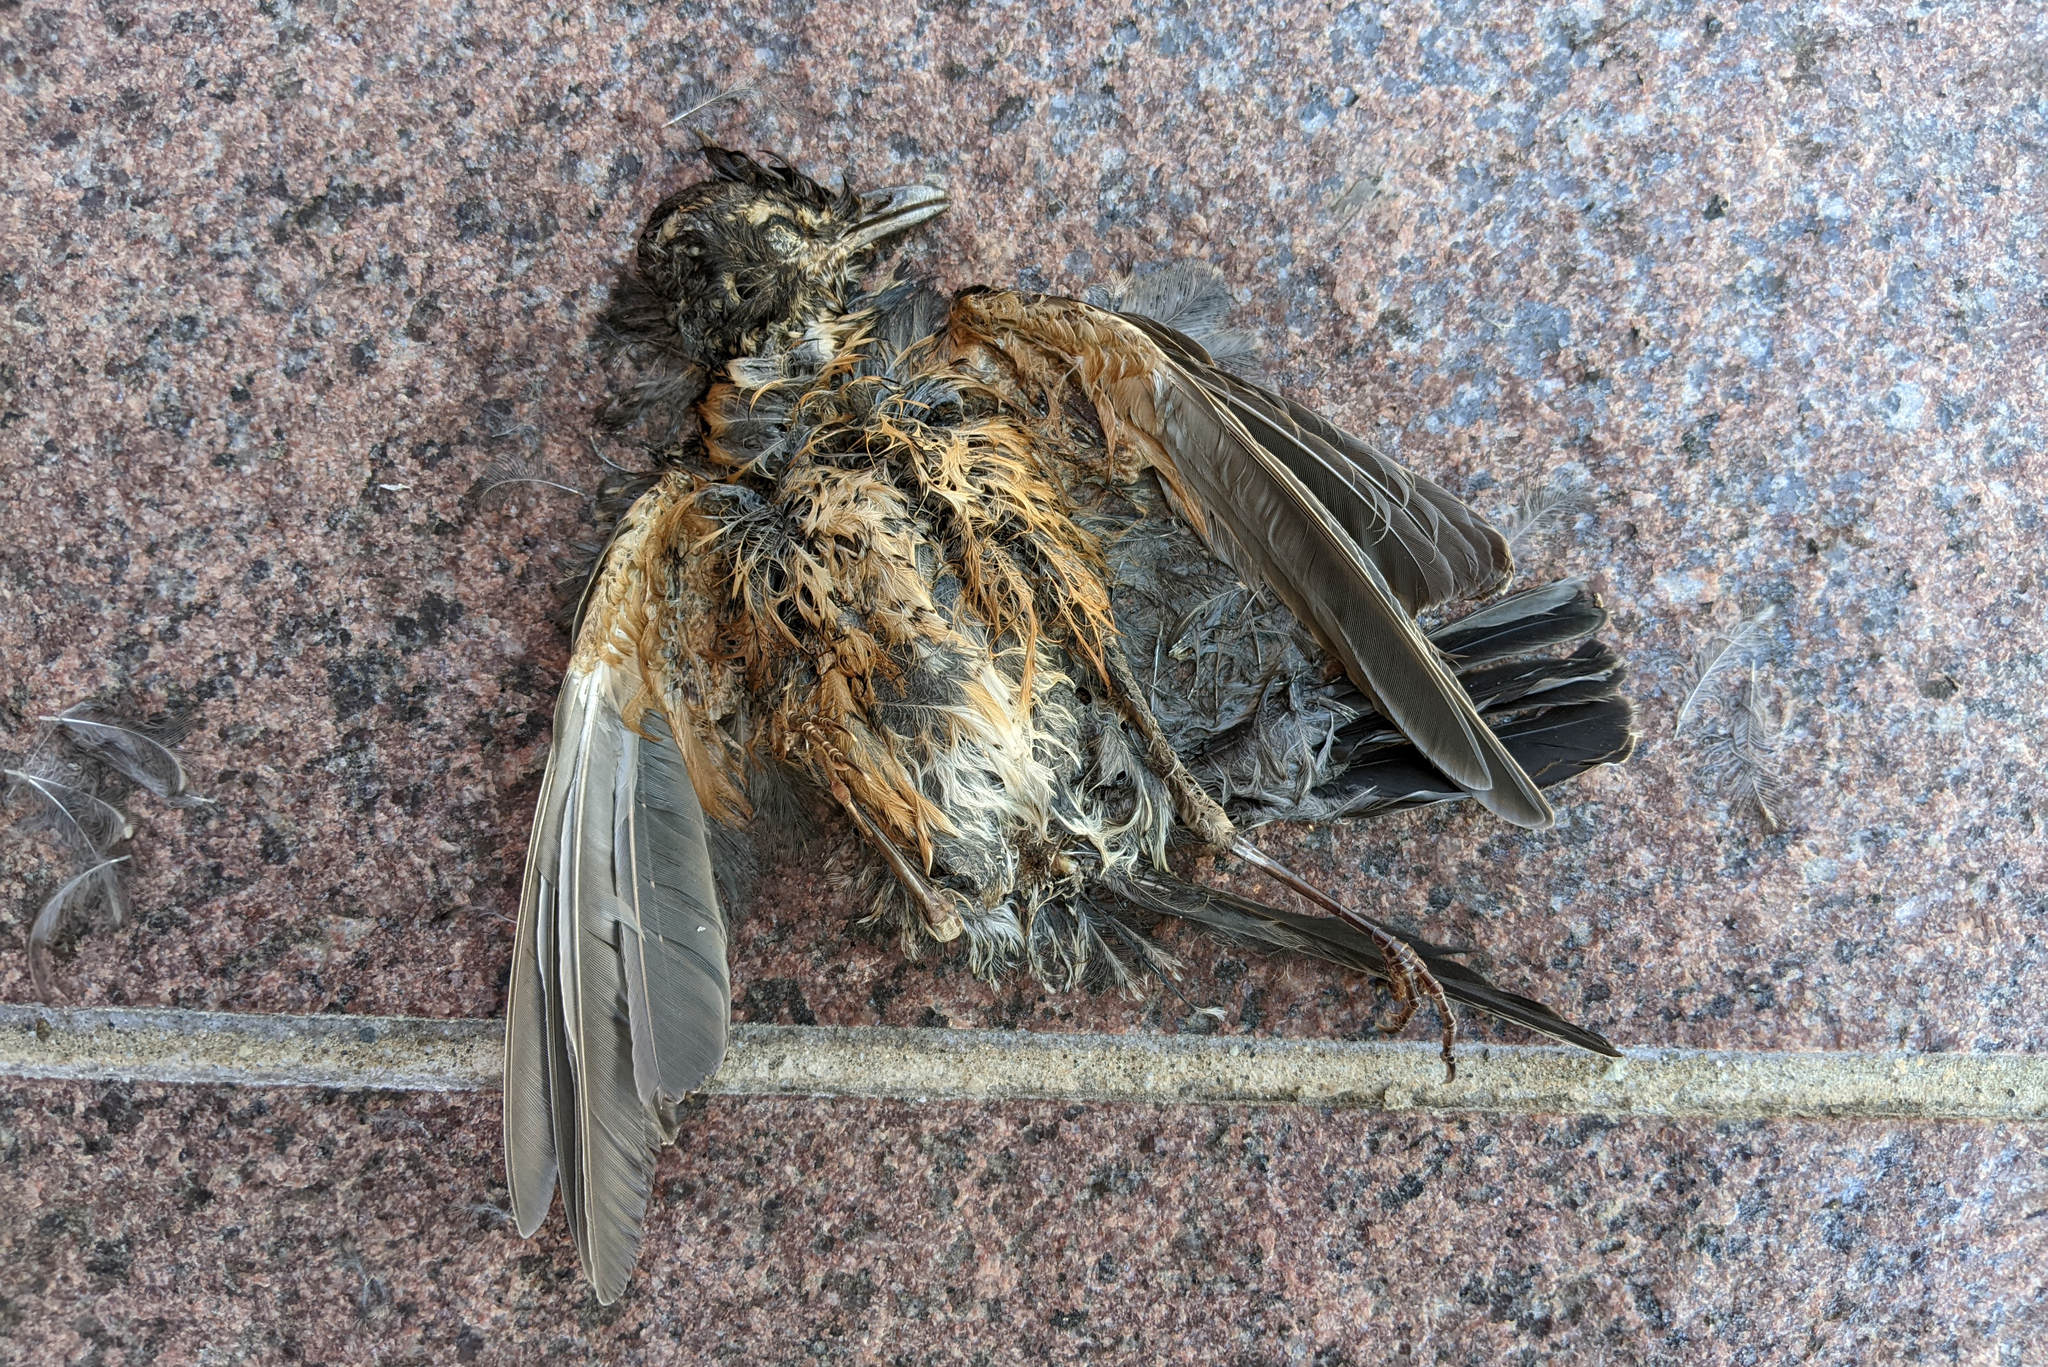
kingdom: Animalia
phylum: Chordata
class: Aves
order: Passeriformes
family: Turdidae
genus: Turdus
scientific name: Turdus migratorius
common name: American robin
